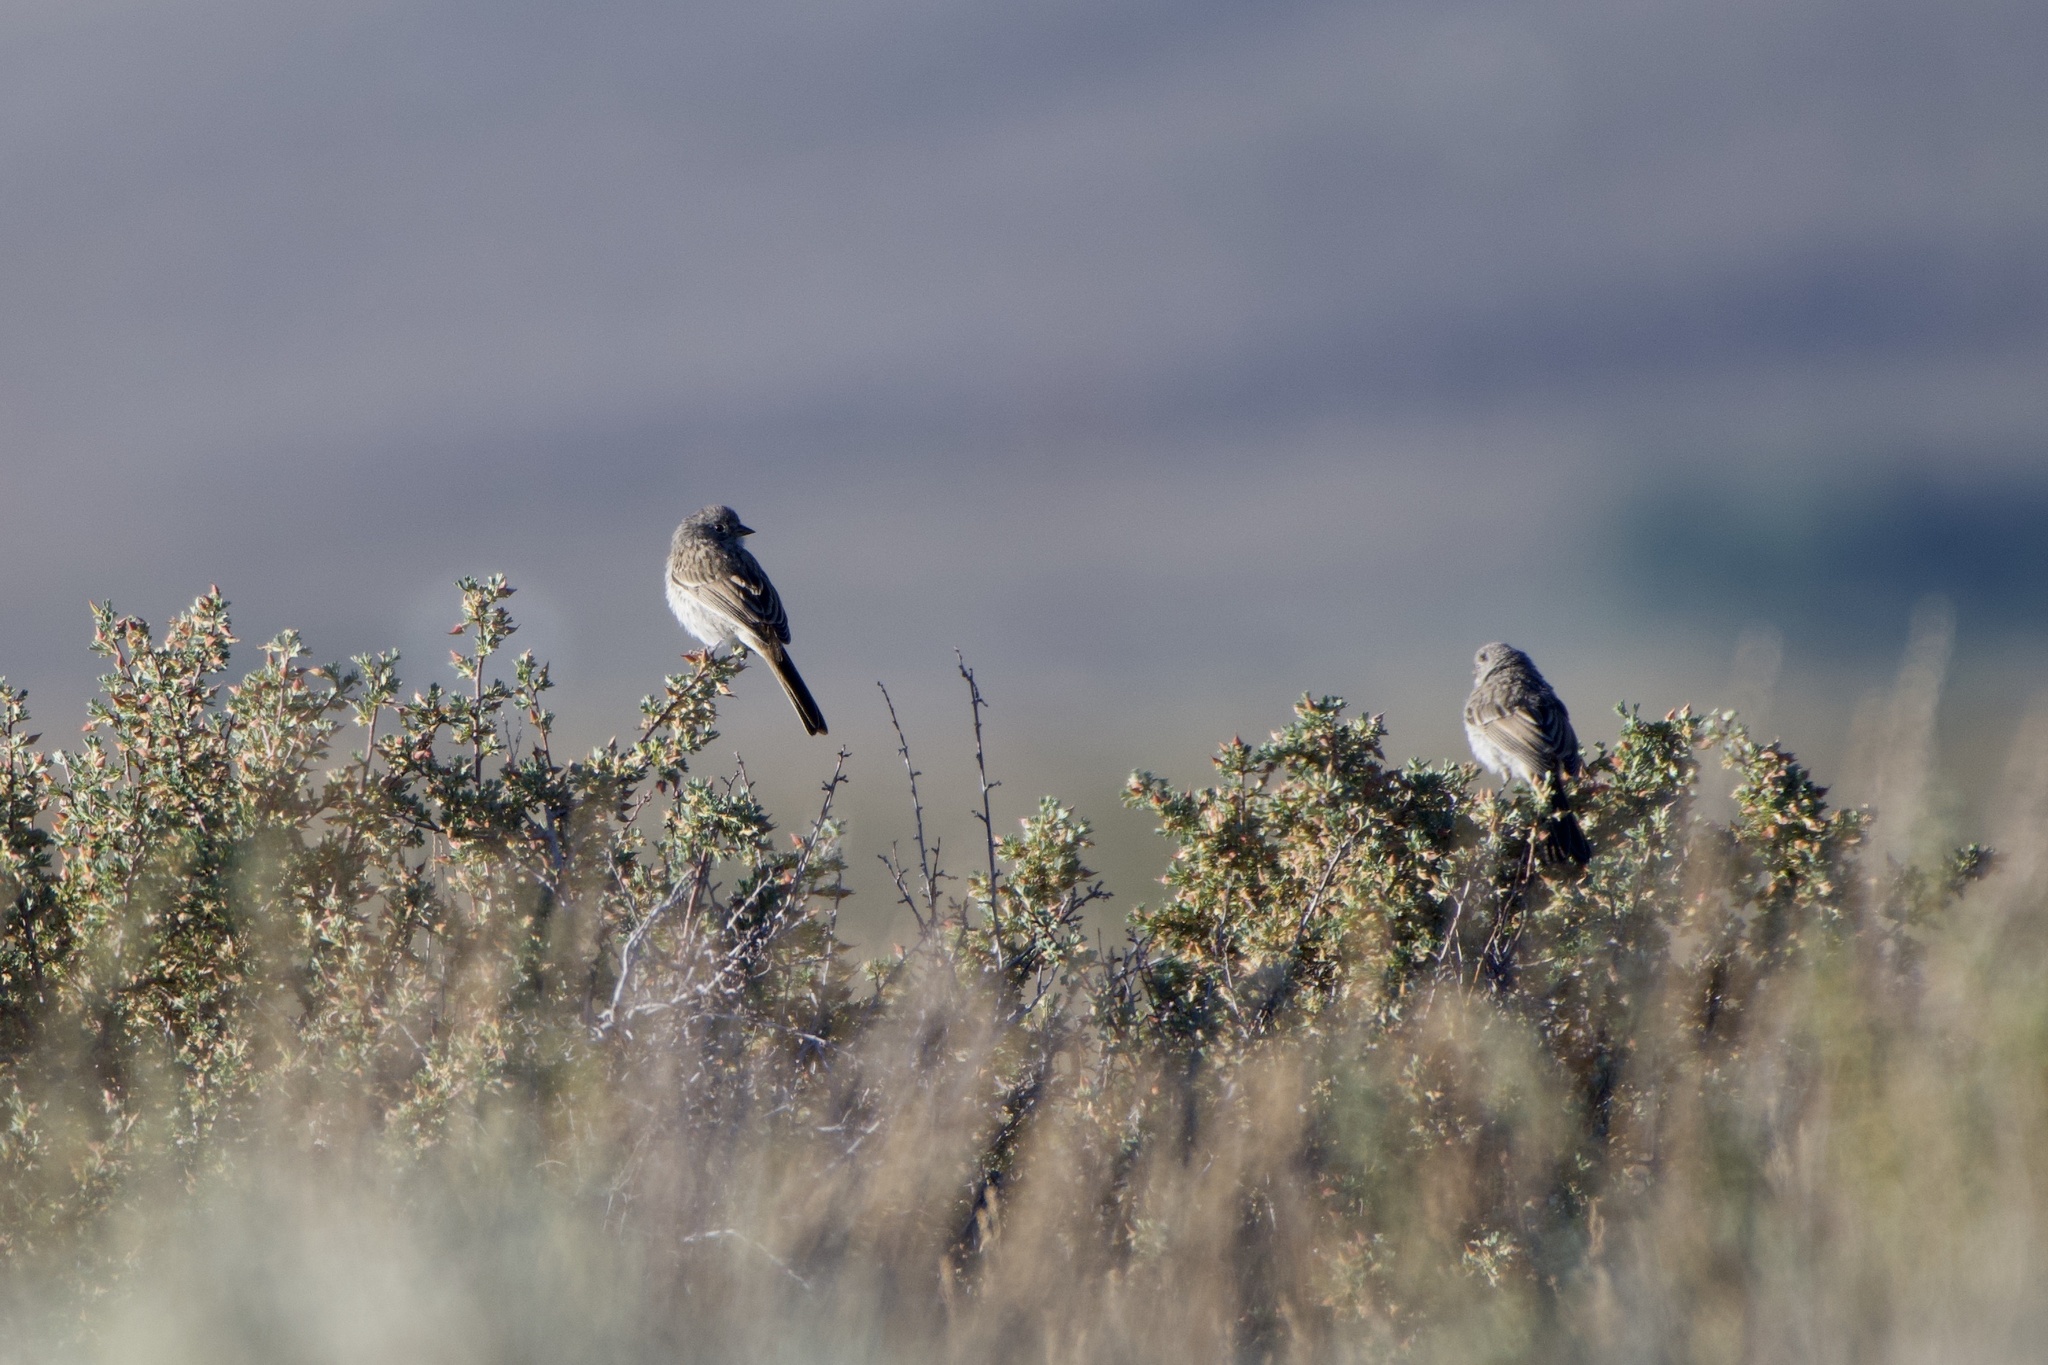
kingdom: Animalia
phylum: Chordata
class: Aves
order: Passeriformes
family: Passerellidae
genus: Artemisiospiza
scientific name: Artemisiospiza nevadensis
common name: Sagebrush sparrow
